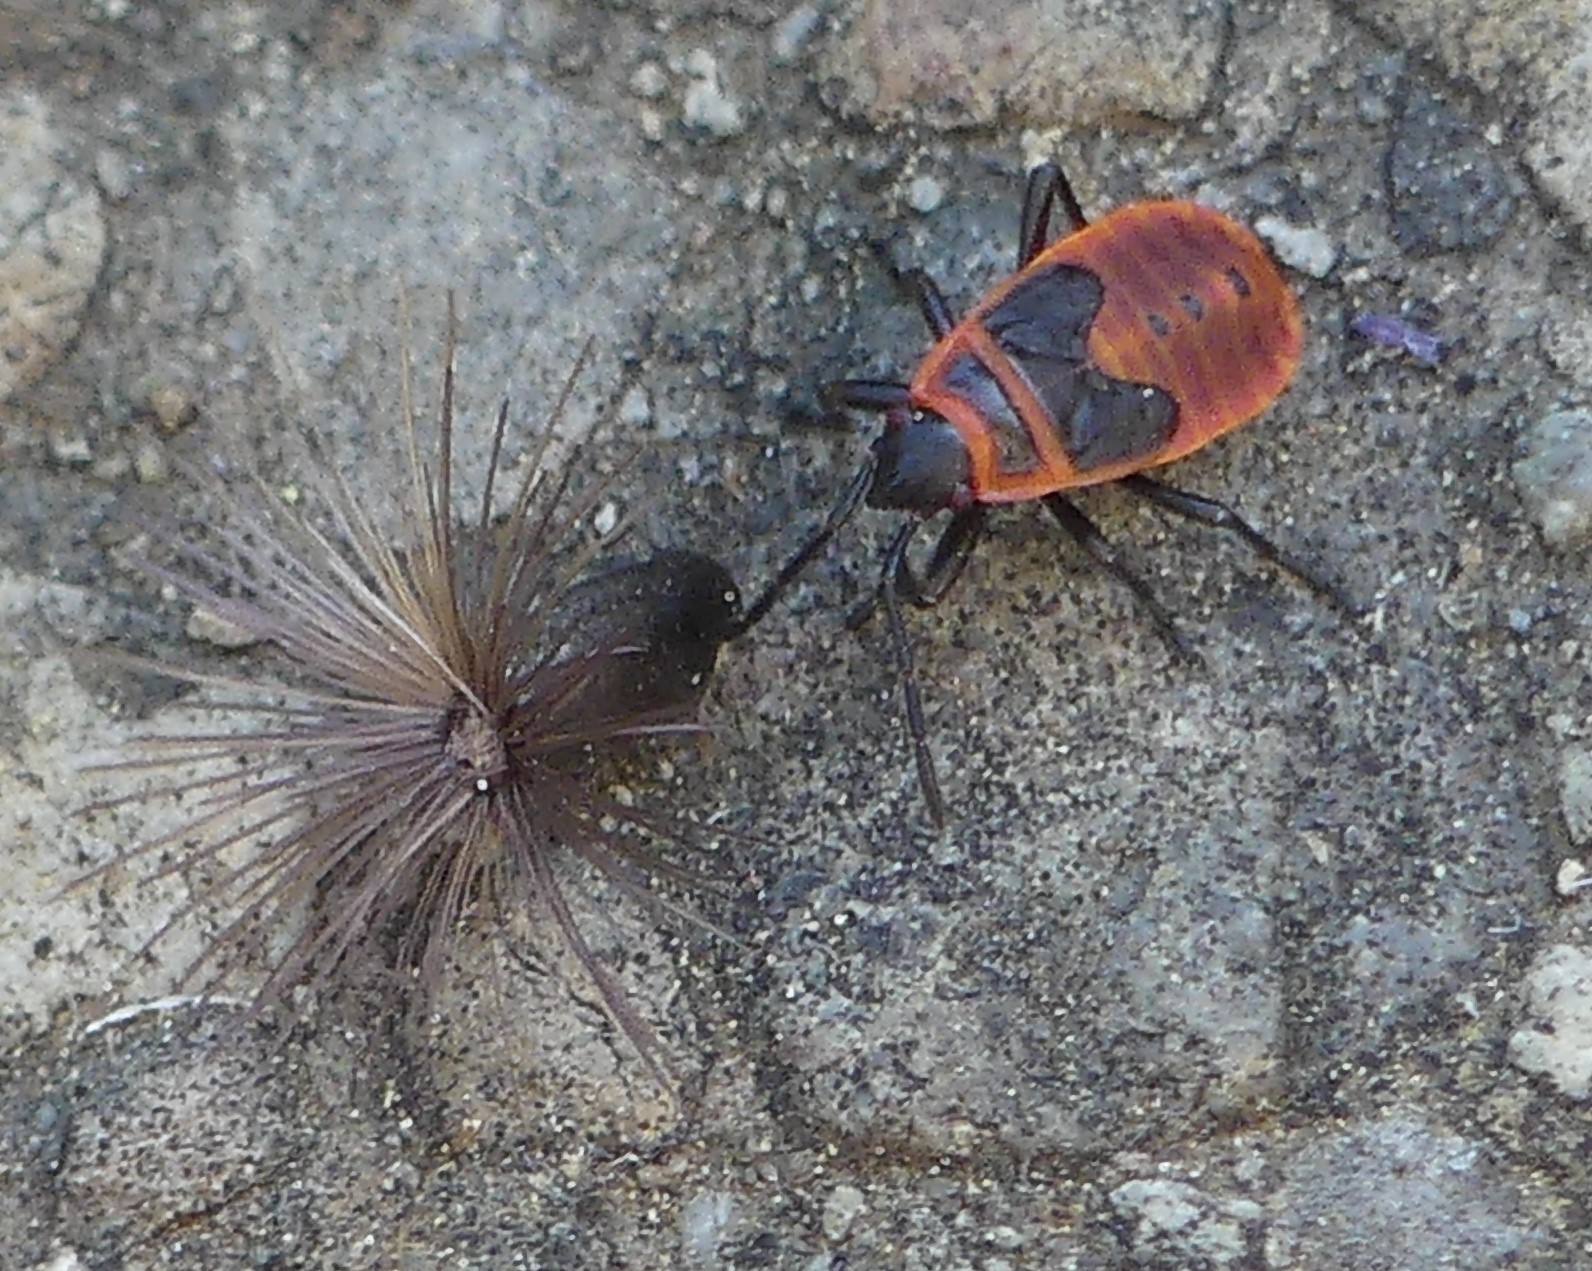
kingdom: Animalia
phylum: Arthropoda
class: Insecta
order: Hemiptera
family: Pyrrhocoridae
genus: Pyrrhocoris
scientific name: Pyrrhocoris apterus
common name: Firebug
